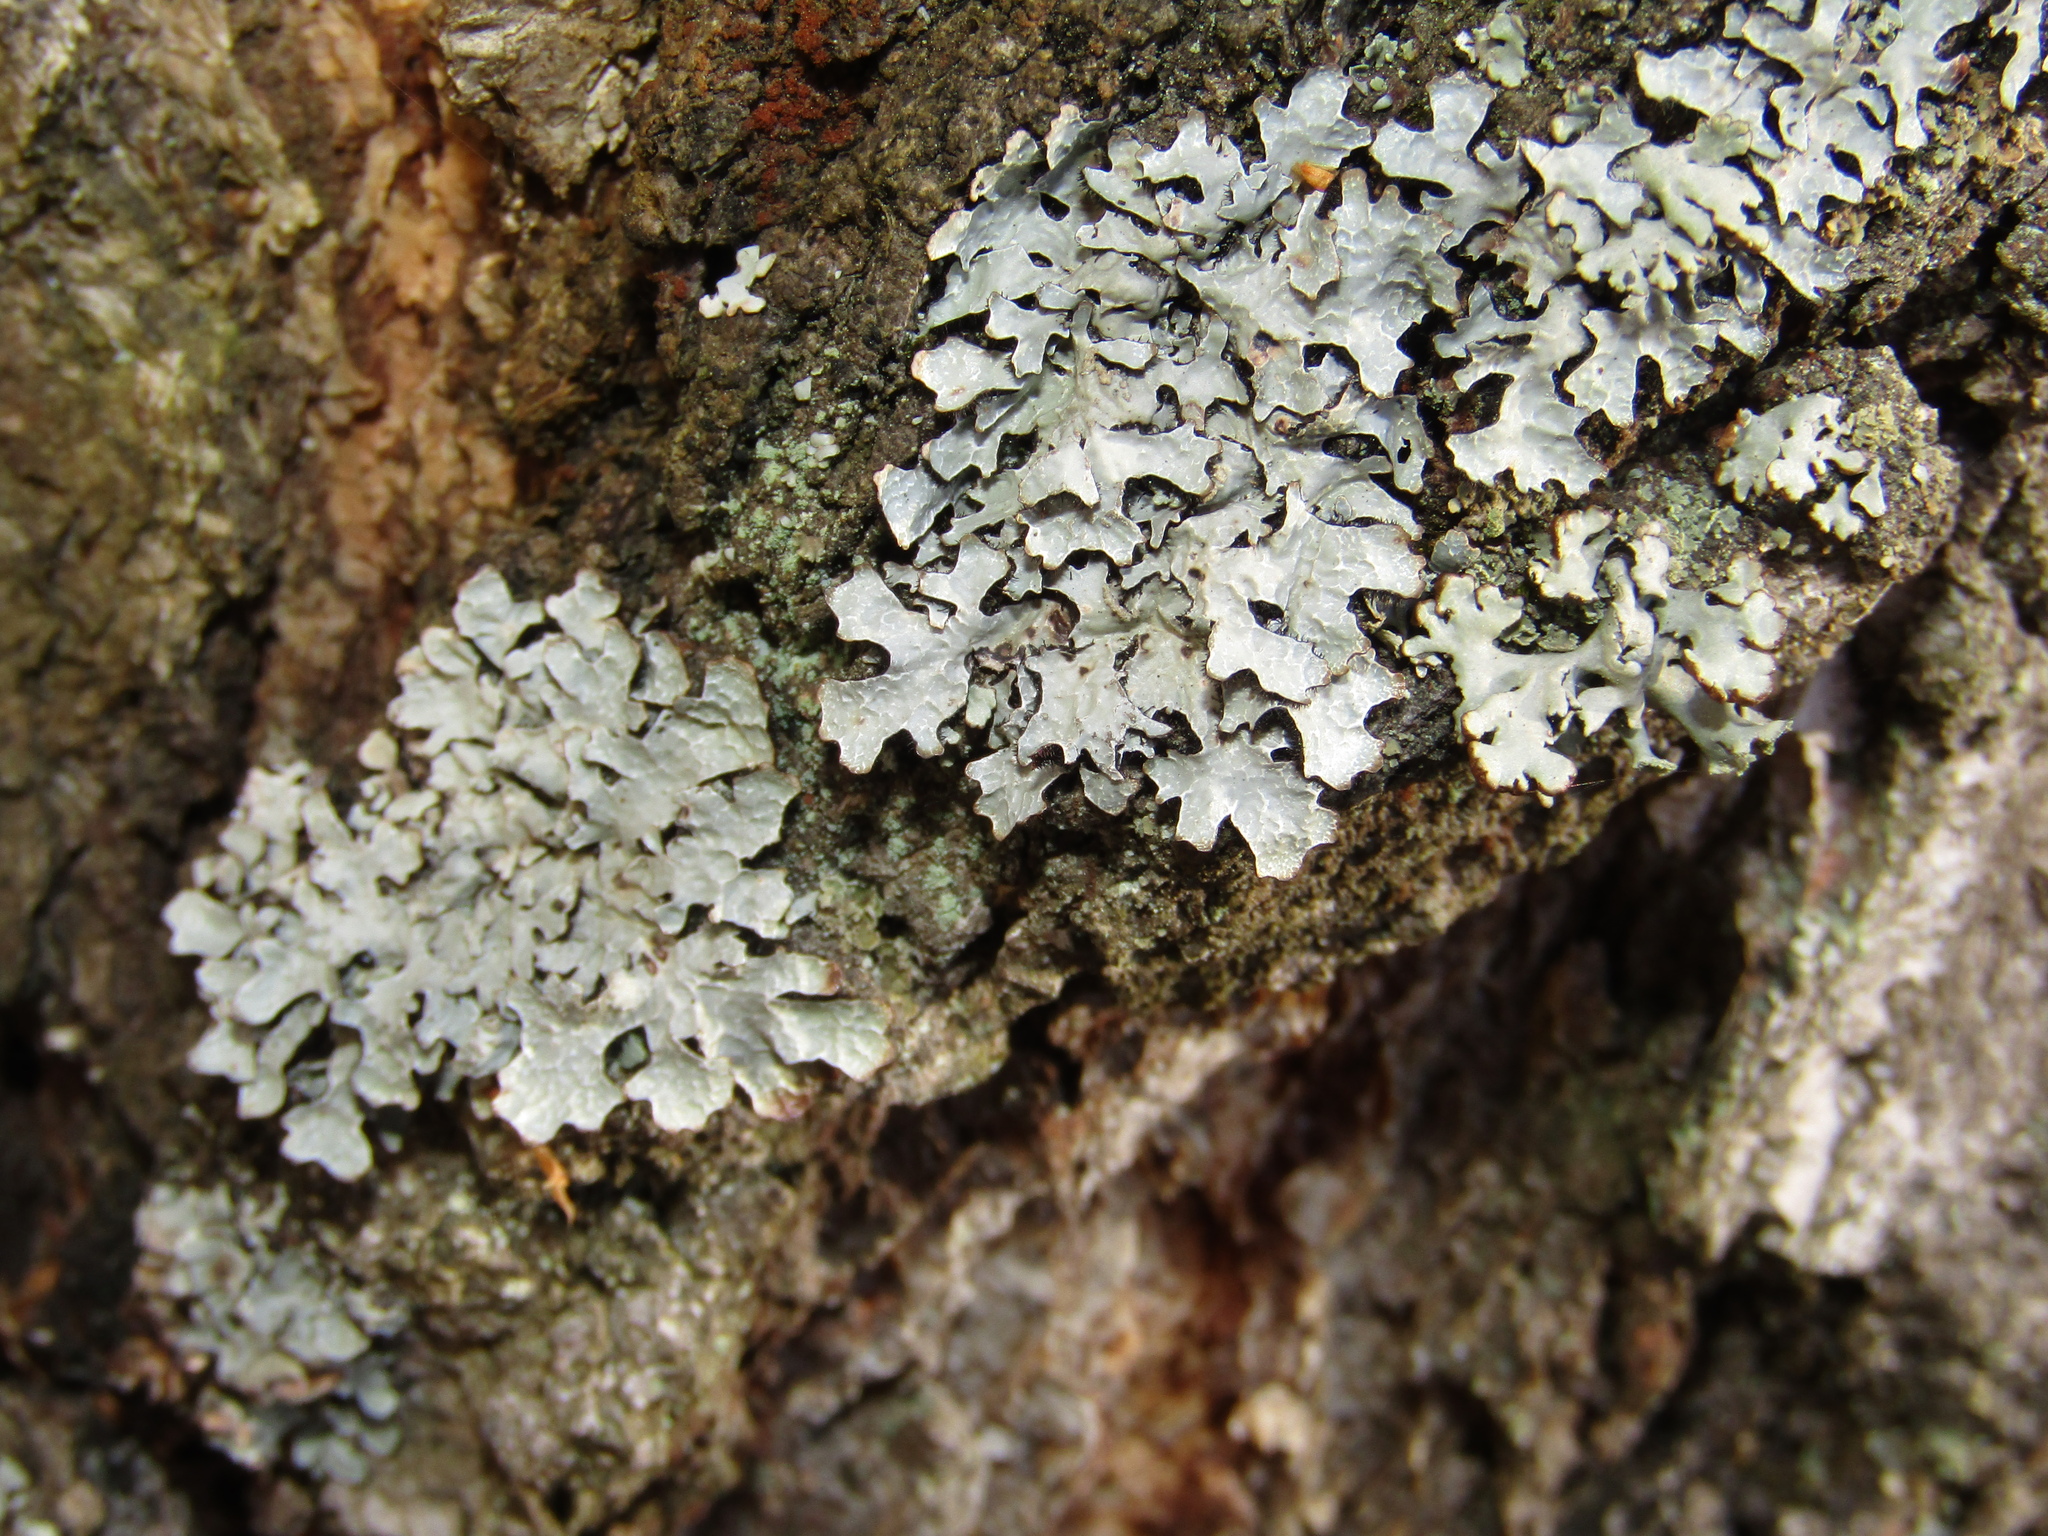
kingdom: Fungi
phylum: Ascomycota
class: Lecanoromycetes
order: Lecanorales
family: Parmeliaceae
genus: Parmelia
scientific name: Parmelia sulcata
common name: Netted shield lichen
